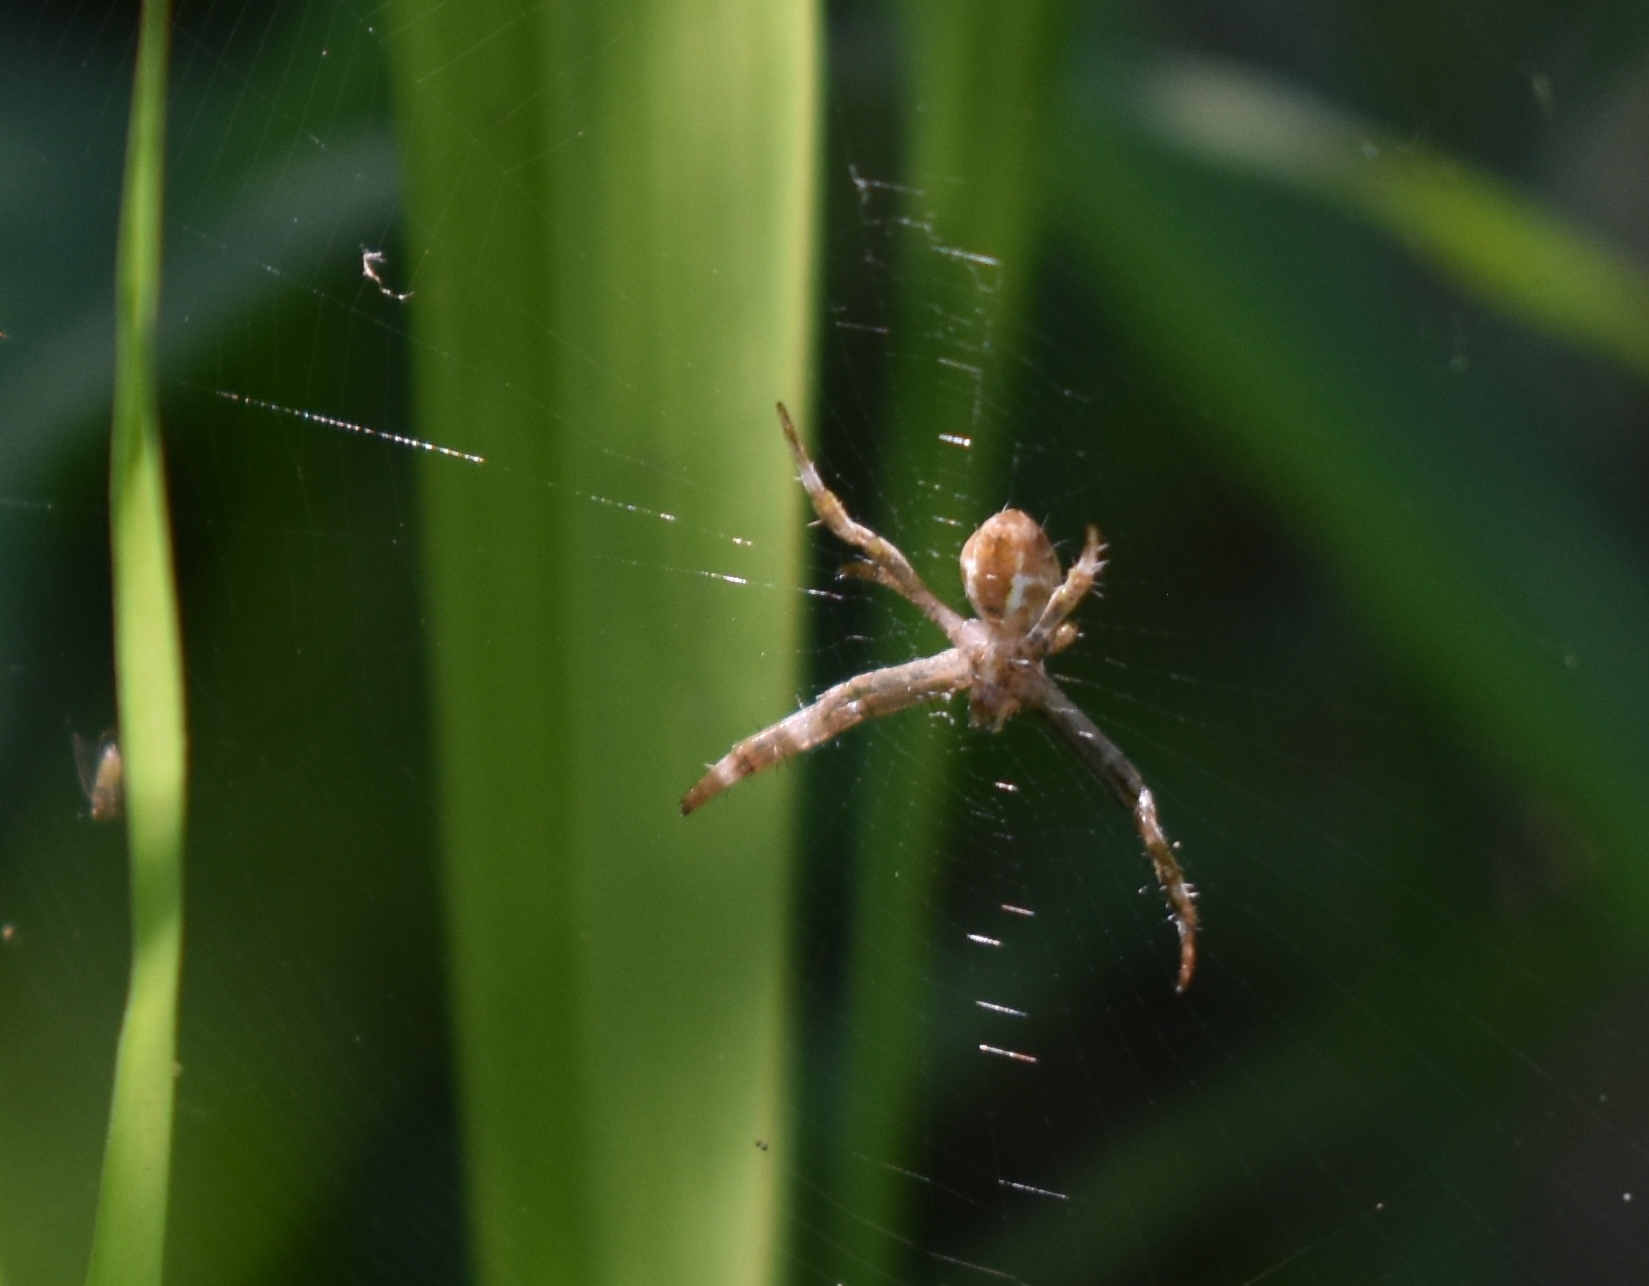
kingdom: Animalia
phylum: Arthropoda
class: Arachnida
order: Araneae
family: Araneidae
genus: Argiope
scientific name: Argiope appensa
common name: Garden spider
